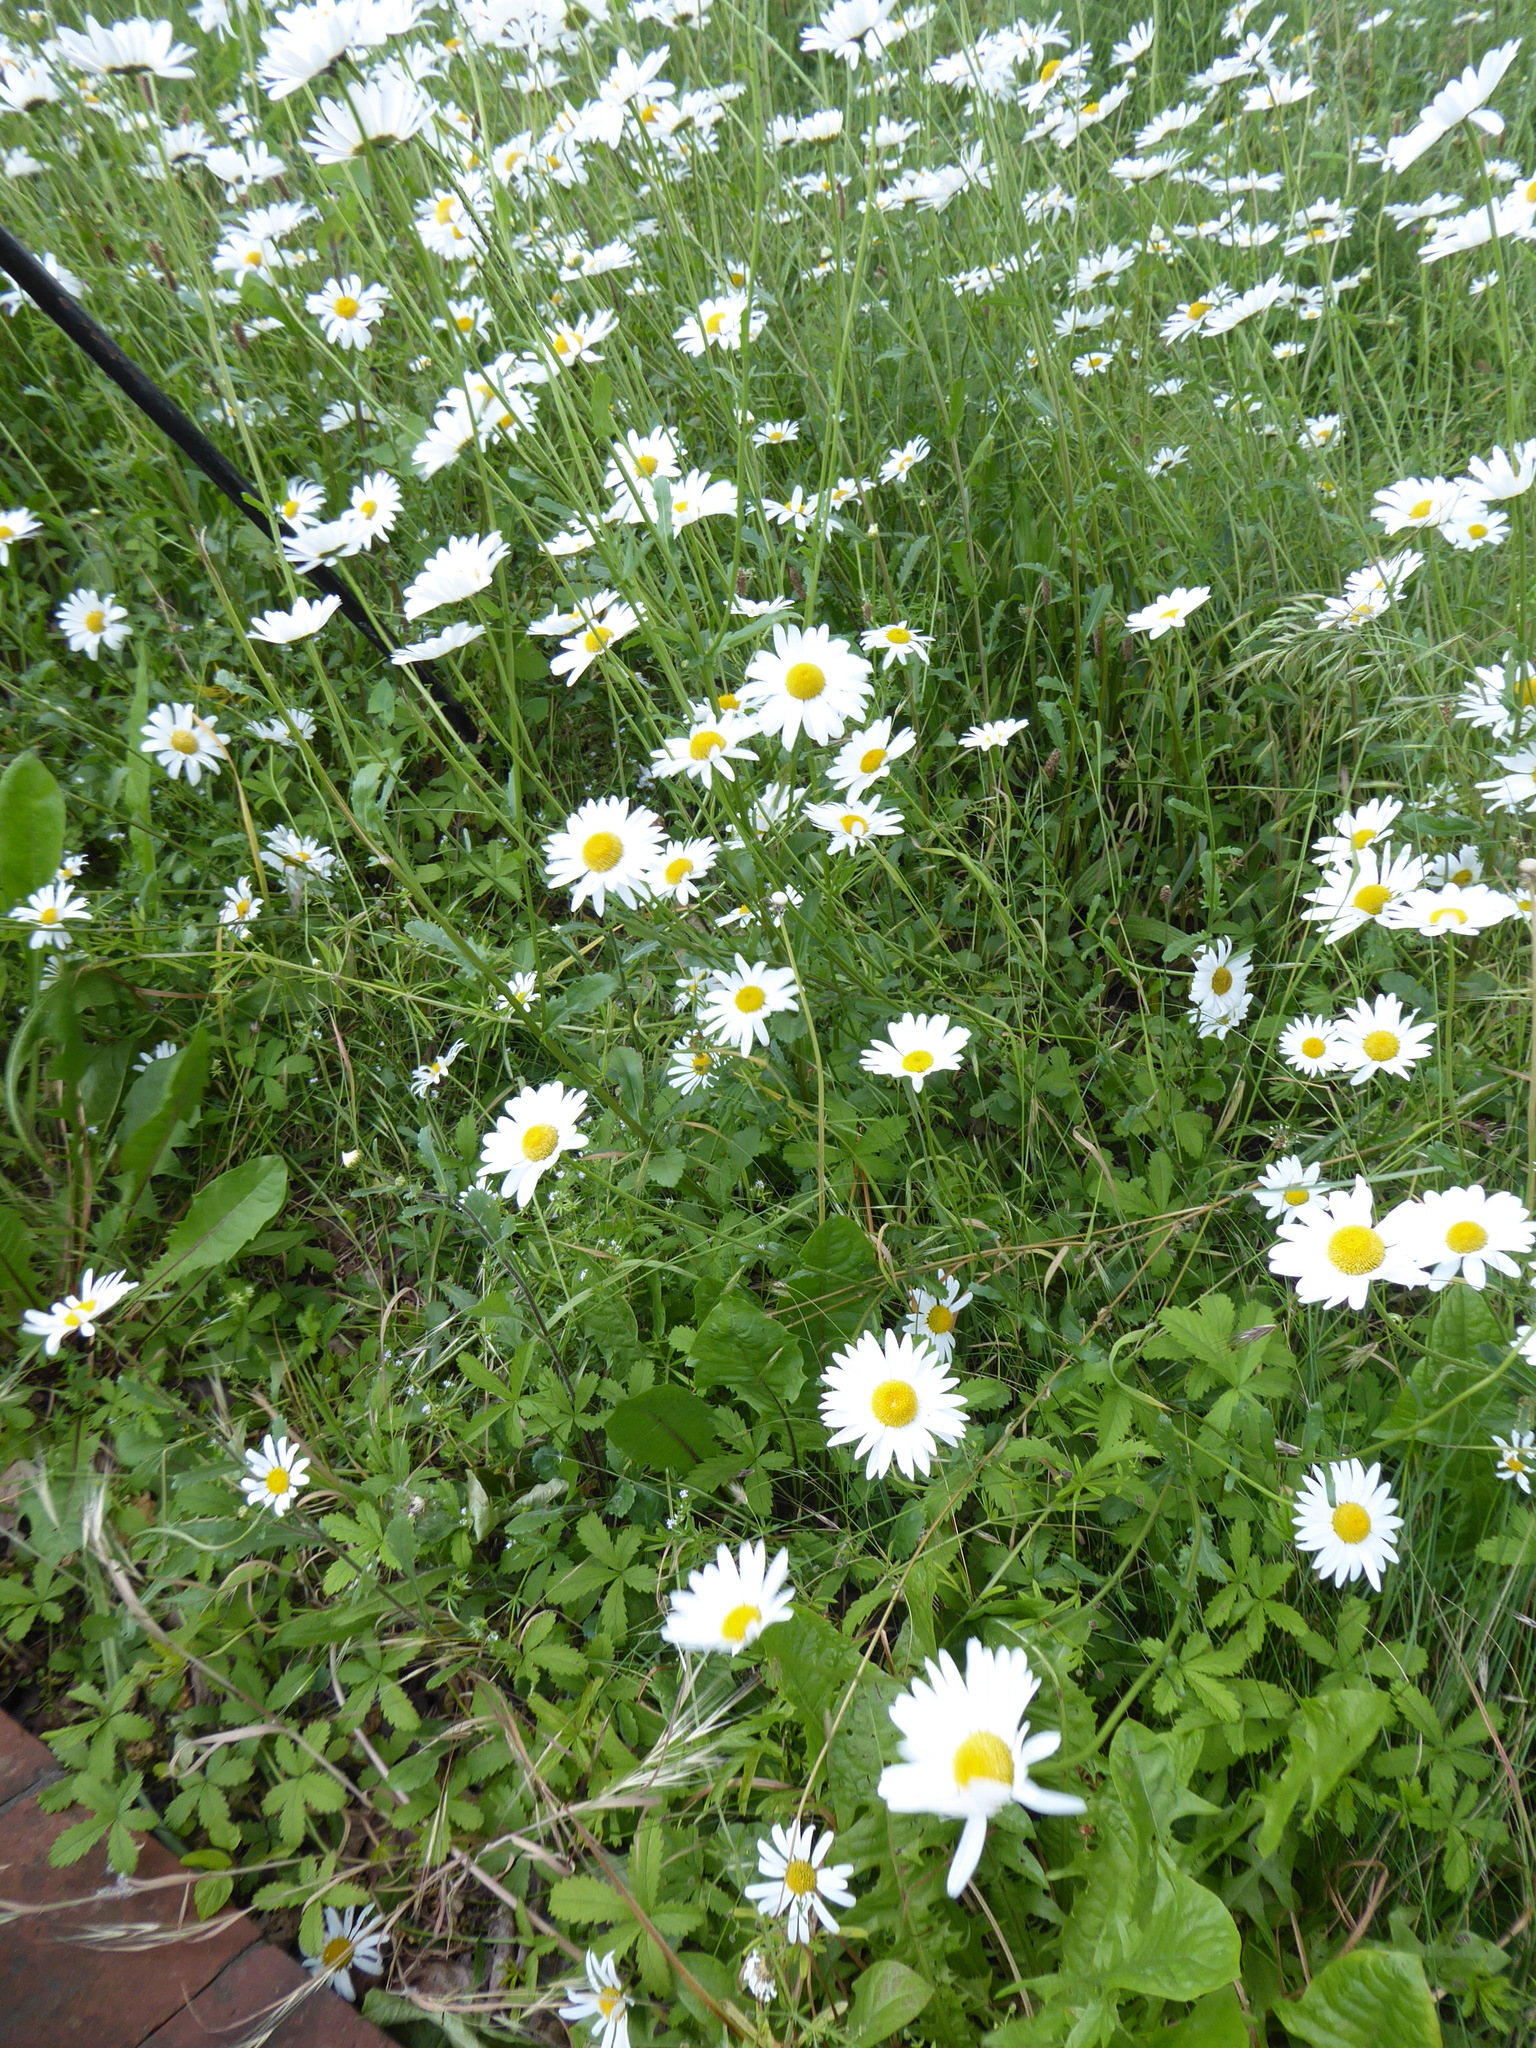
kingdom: Plantae
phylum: Tracheophyta
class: Magnoliopsida
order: Asterales
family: Asteraceae
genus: Leucanthemum
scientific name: Leucanthemum vulgare
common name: Oxeye daisy
